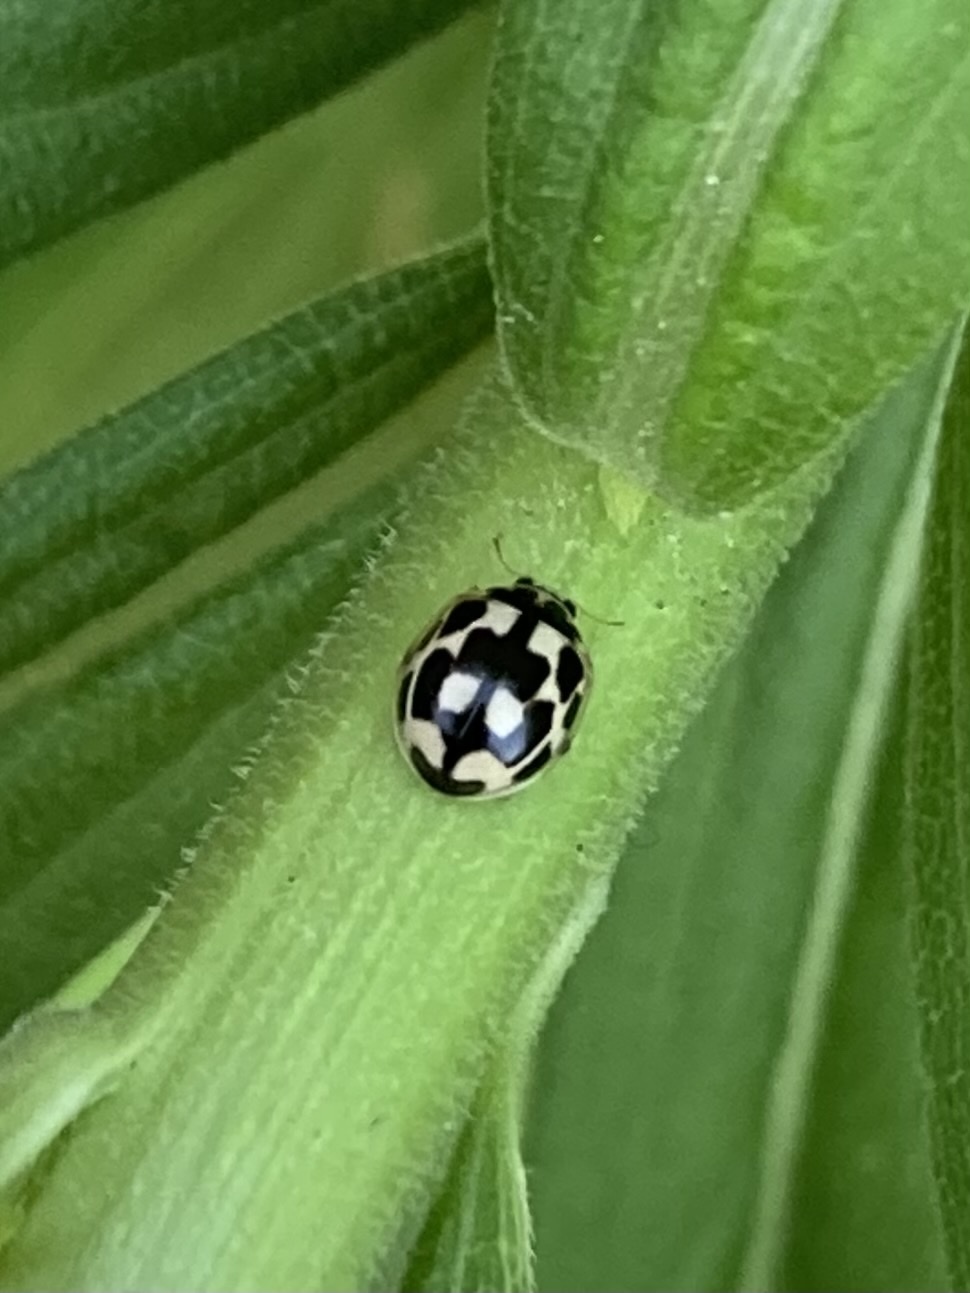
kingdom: Animalia
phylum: Arthropoda
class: Insecta
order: Coleoptera
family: Coccinellidae
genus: Propylaea
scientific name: Propylaea quatuordecimpunctata
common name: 14-spotted ladybird beetle
